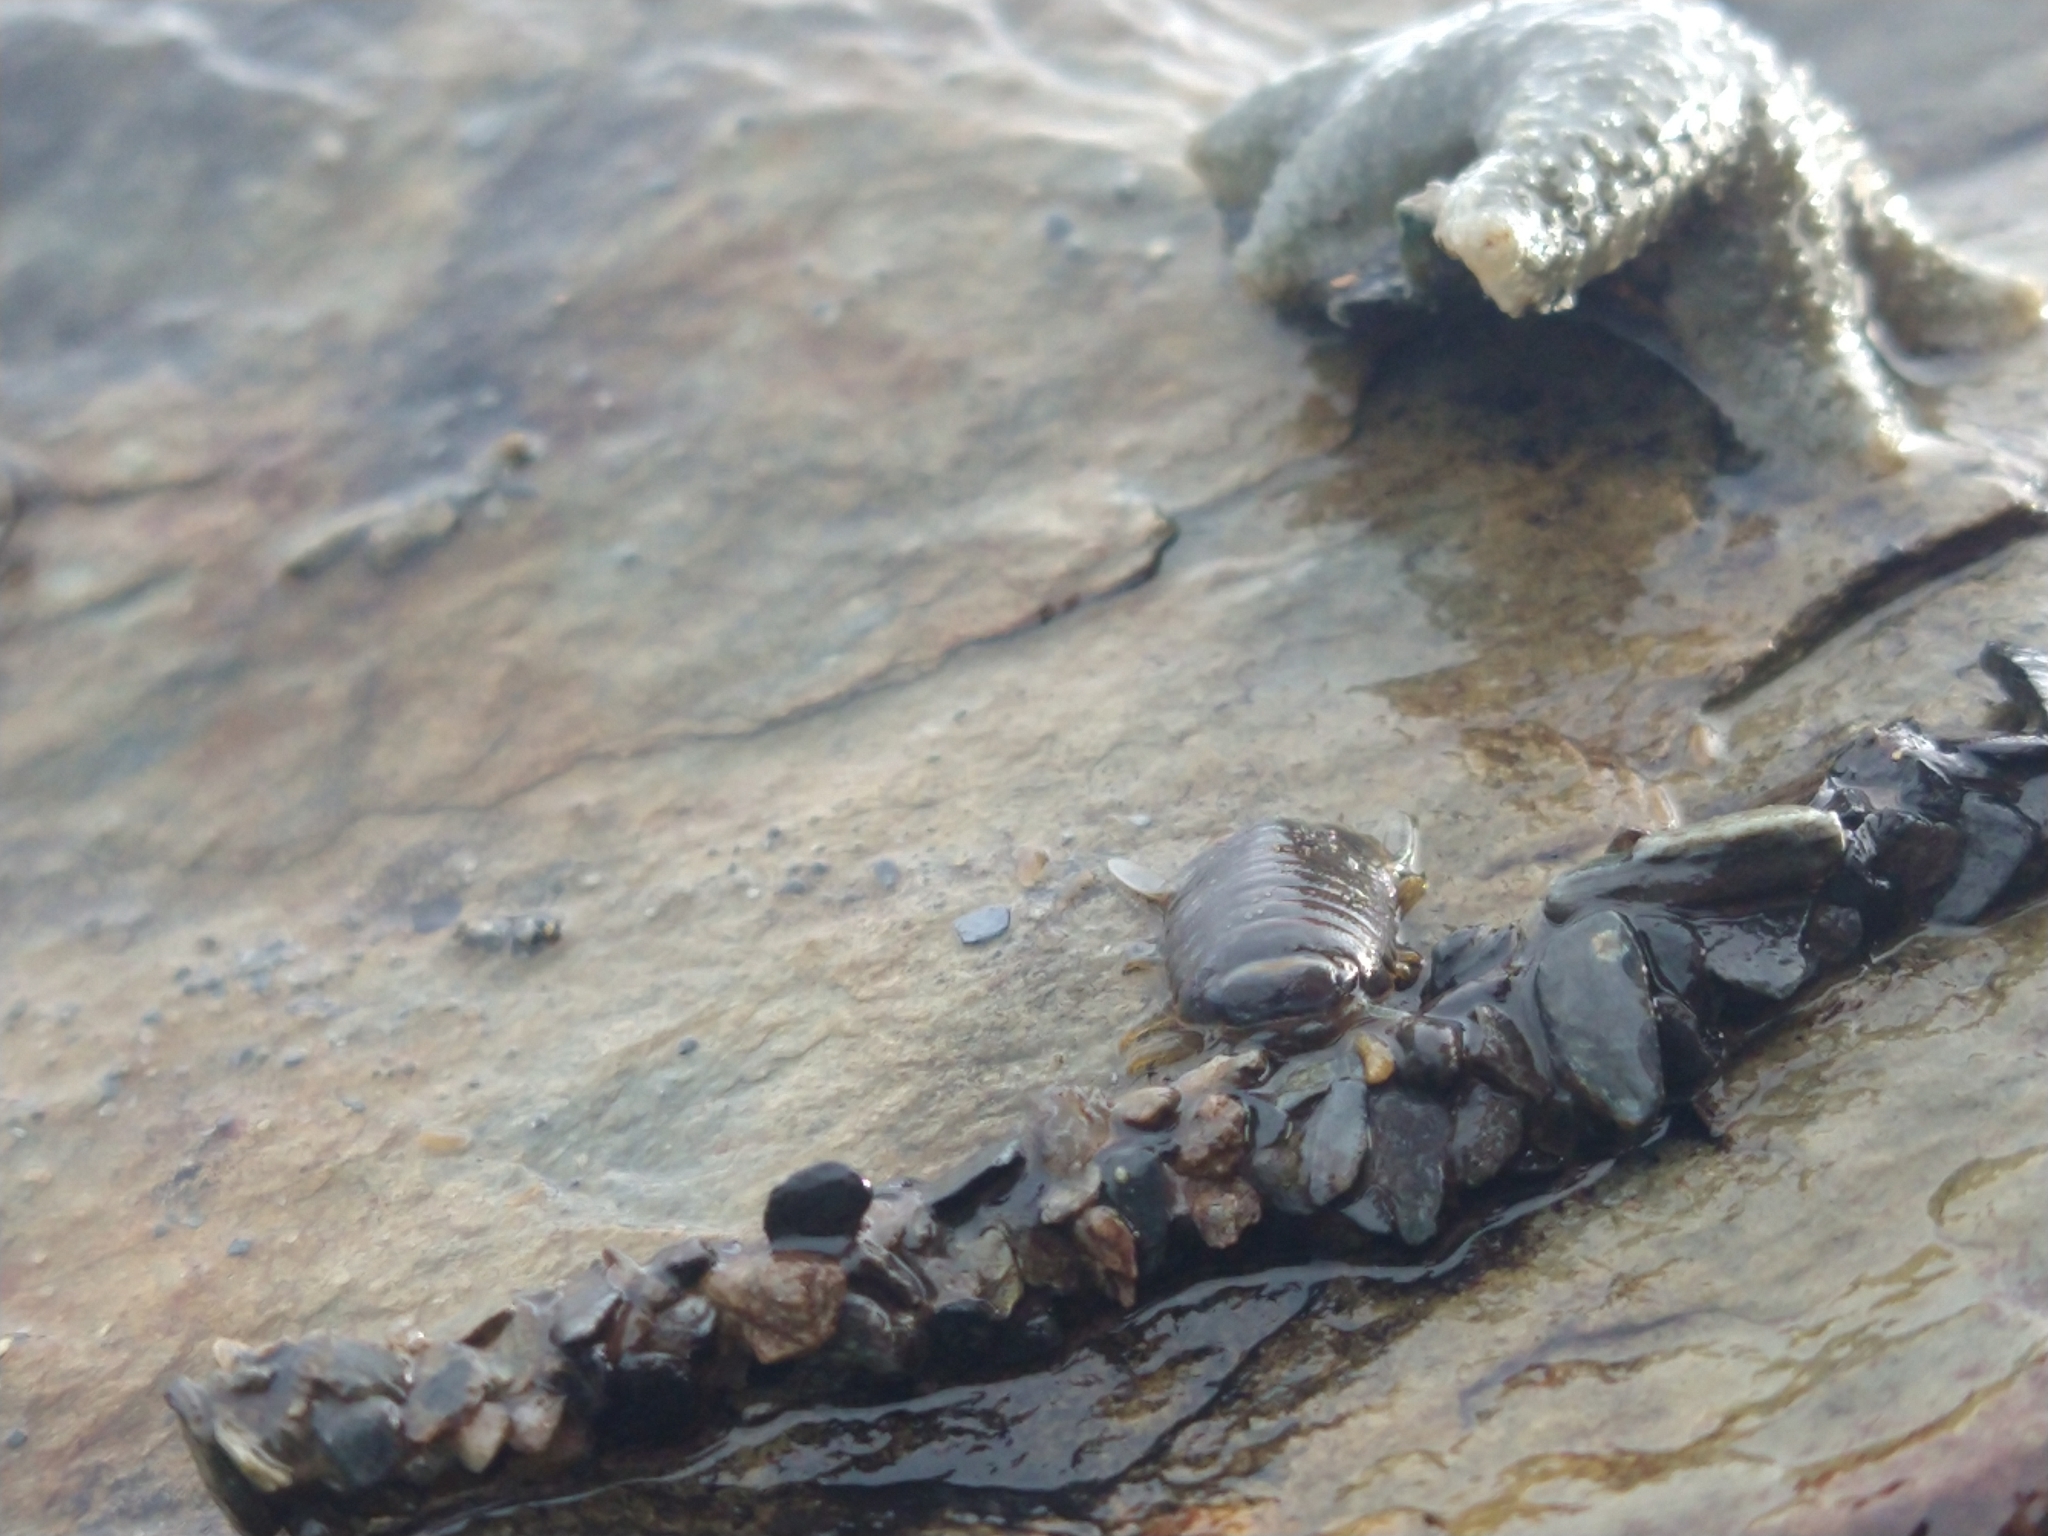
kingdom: Animalia
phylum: Echinodermata
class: Asteroidea
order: Forcipulatida
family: Asteriidae
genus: Anasterias
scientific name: Anasterias antarctica
